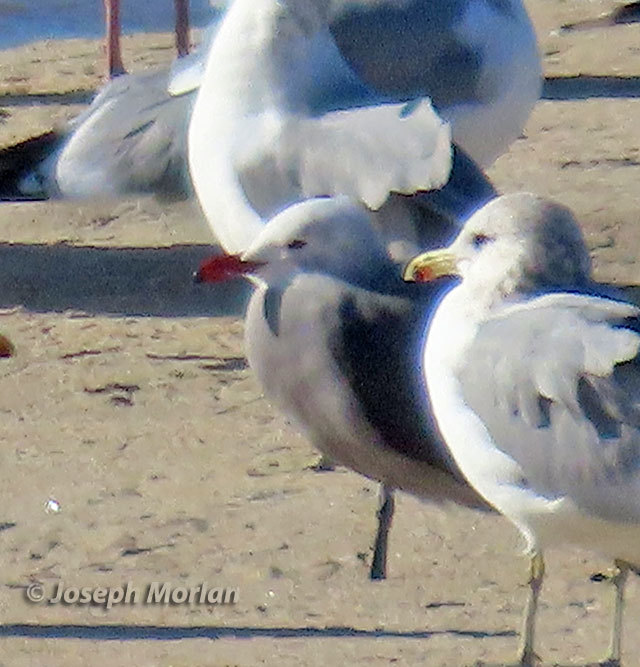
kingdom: Animalia
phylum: Chordata
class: Aves
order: Charadriiformes
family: Laridae
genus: Larus
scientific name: Larus heermanni
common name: Heermann's gull
